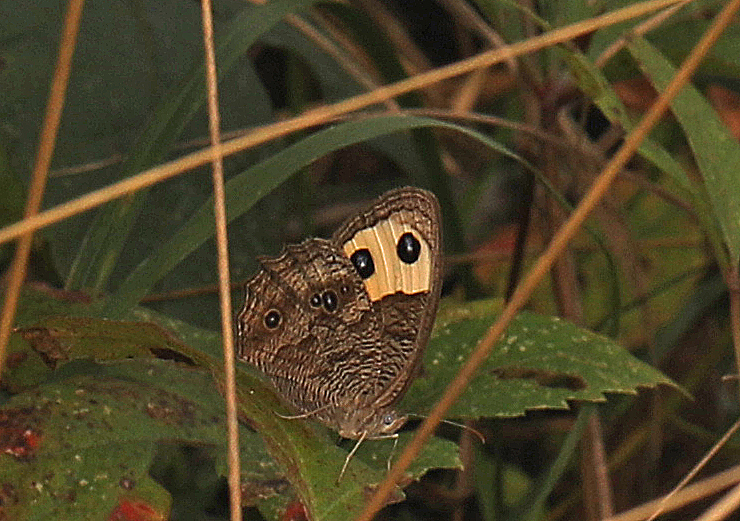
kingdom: Animalia
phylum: Arthropoda
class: Insecta
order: Lepidoptera
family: Nymphalidae
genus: Cercyonis
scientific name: Cercyonis pegala
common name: Common wood-nymph
